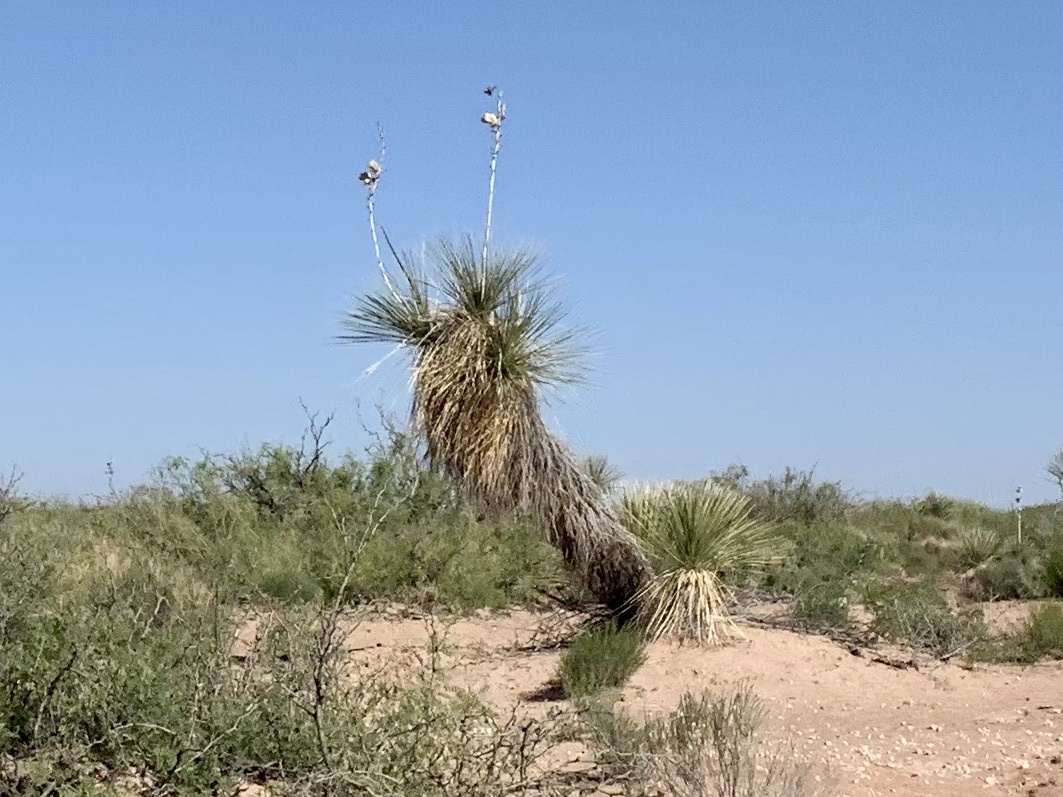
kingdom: Plantae
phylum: Tracheophyta
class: Liliopsida
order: Asparagales
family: Asparagaceae
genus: Yucca
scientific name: Yucca elata
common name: Palmella
